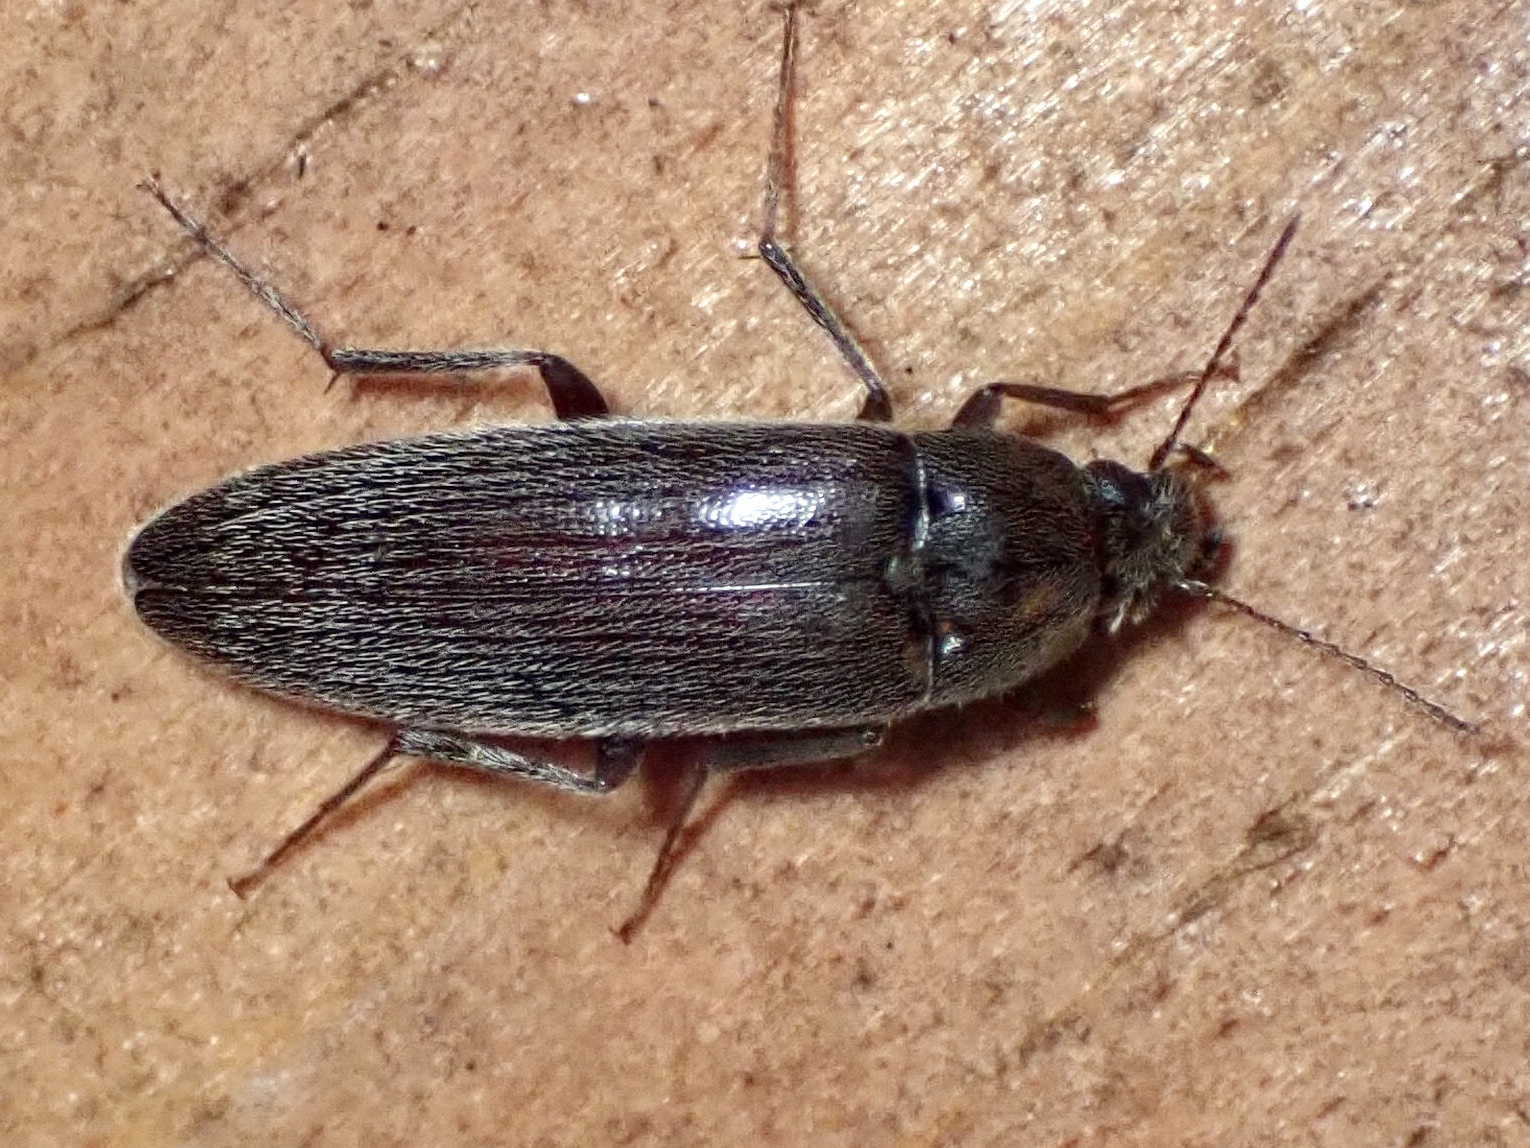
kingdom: Animalia
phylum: Arthropoda
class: Insecta
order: Coleoptera
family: Synchroidae
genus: Synchroa
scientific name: Synchroa punctata
